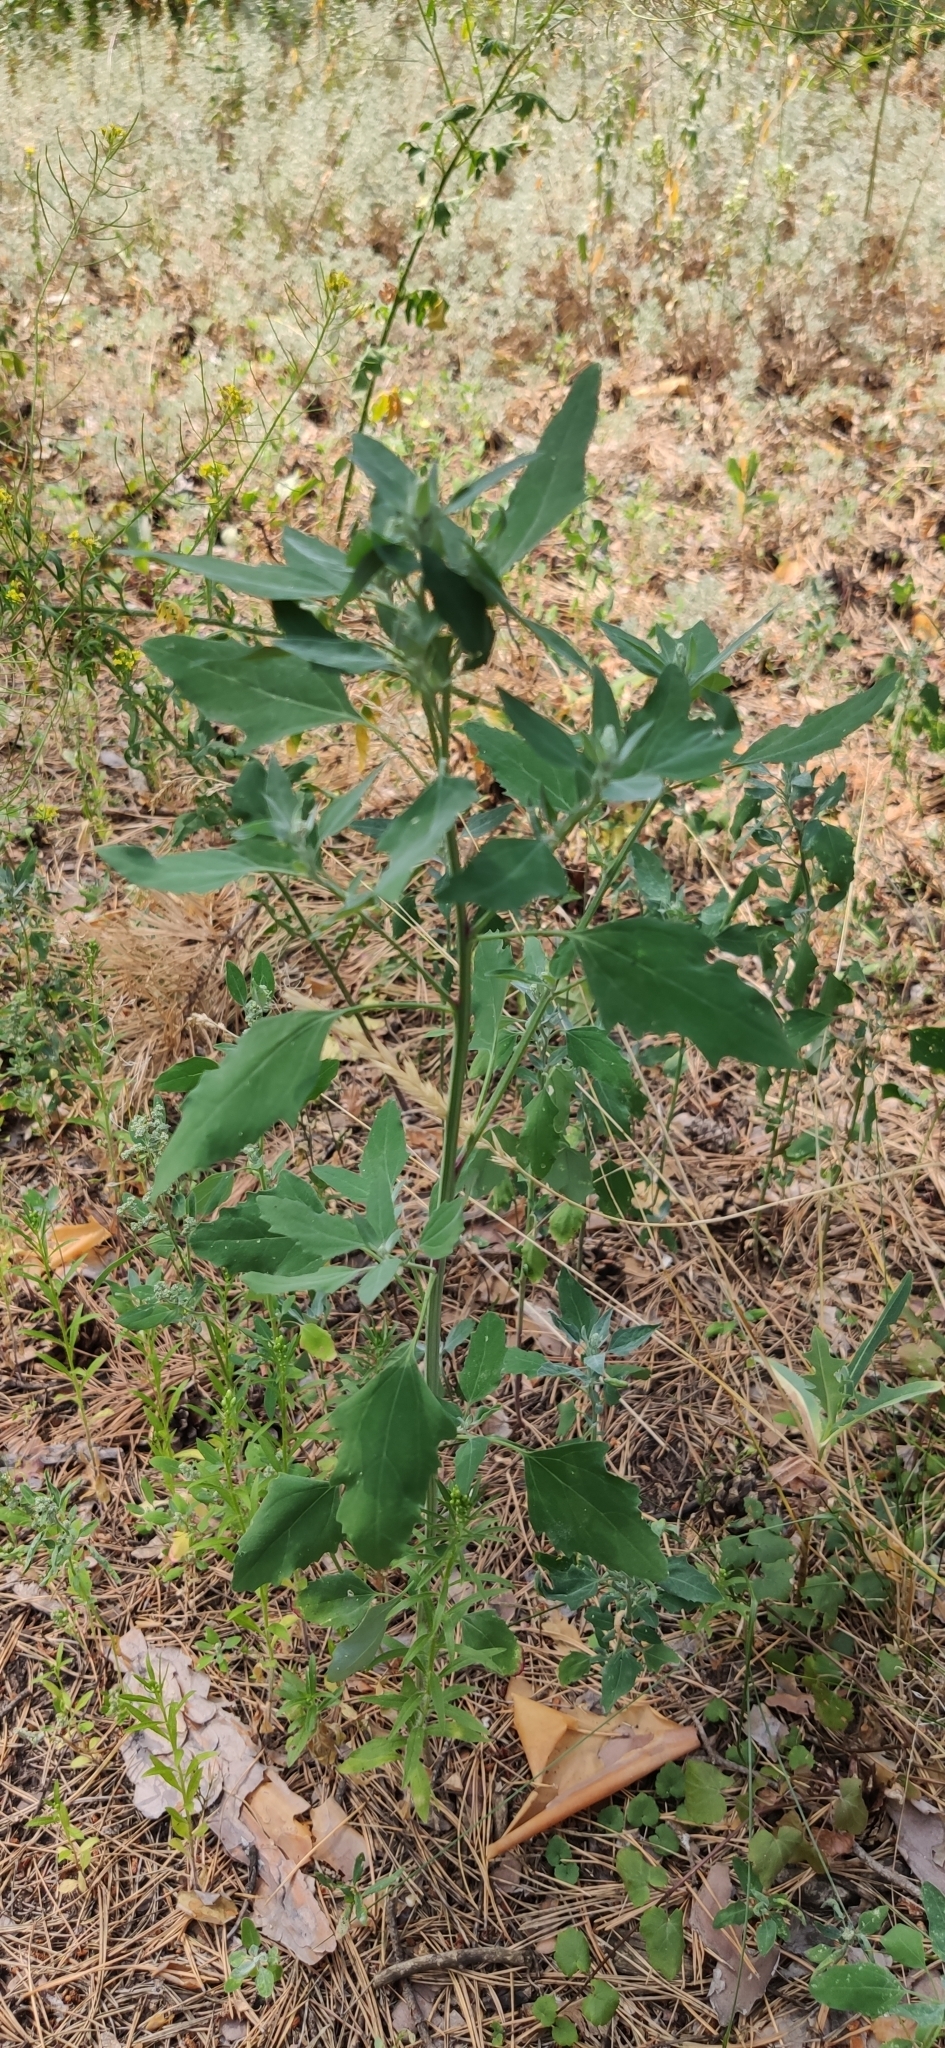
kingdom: Plantae
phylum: Tracheophyta
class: Magnoliopsida
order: Caryophyllales
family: Amaranthaceae
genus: Chenopodium
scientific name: Chenopodium album
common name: Fat-hen
